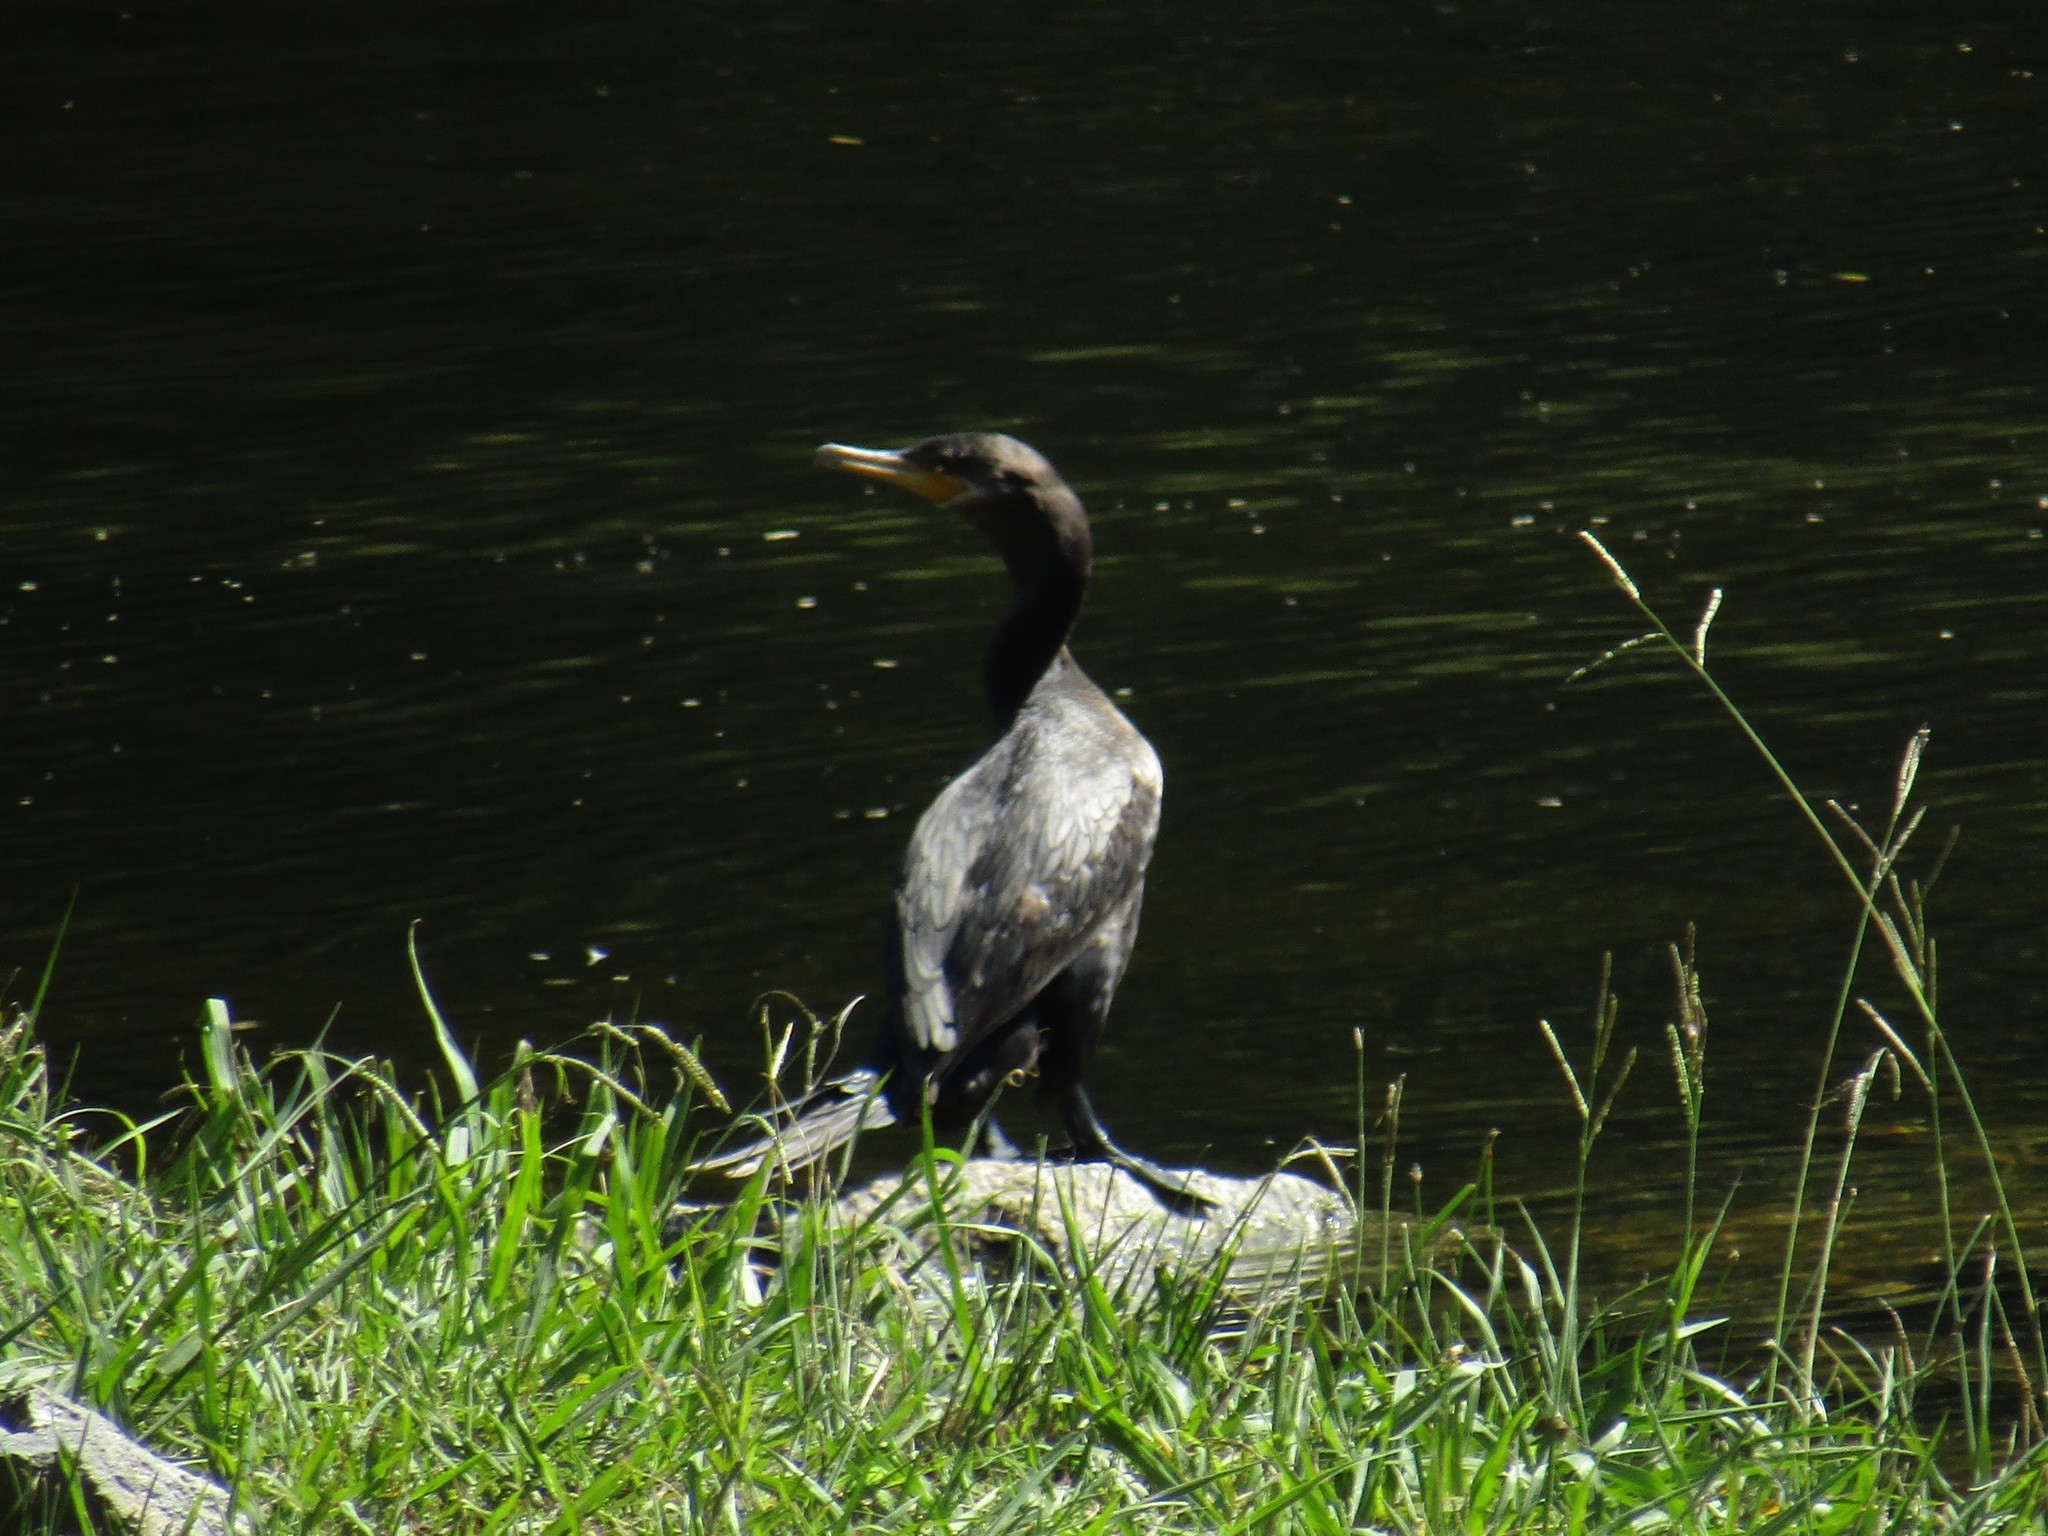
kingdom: Animalia
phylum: Chordata
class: Aves
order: Suliformes
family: Phalacrocoracidae
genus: Phalacrocorax
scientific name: Phalacrocorax brasilianus
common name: Neotropic cormorant
